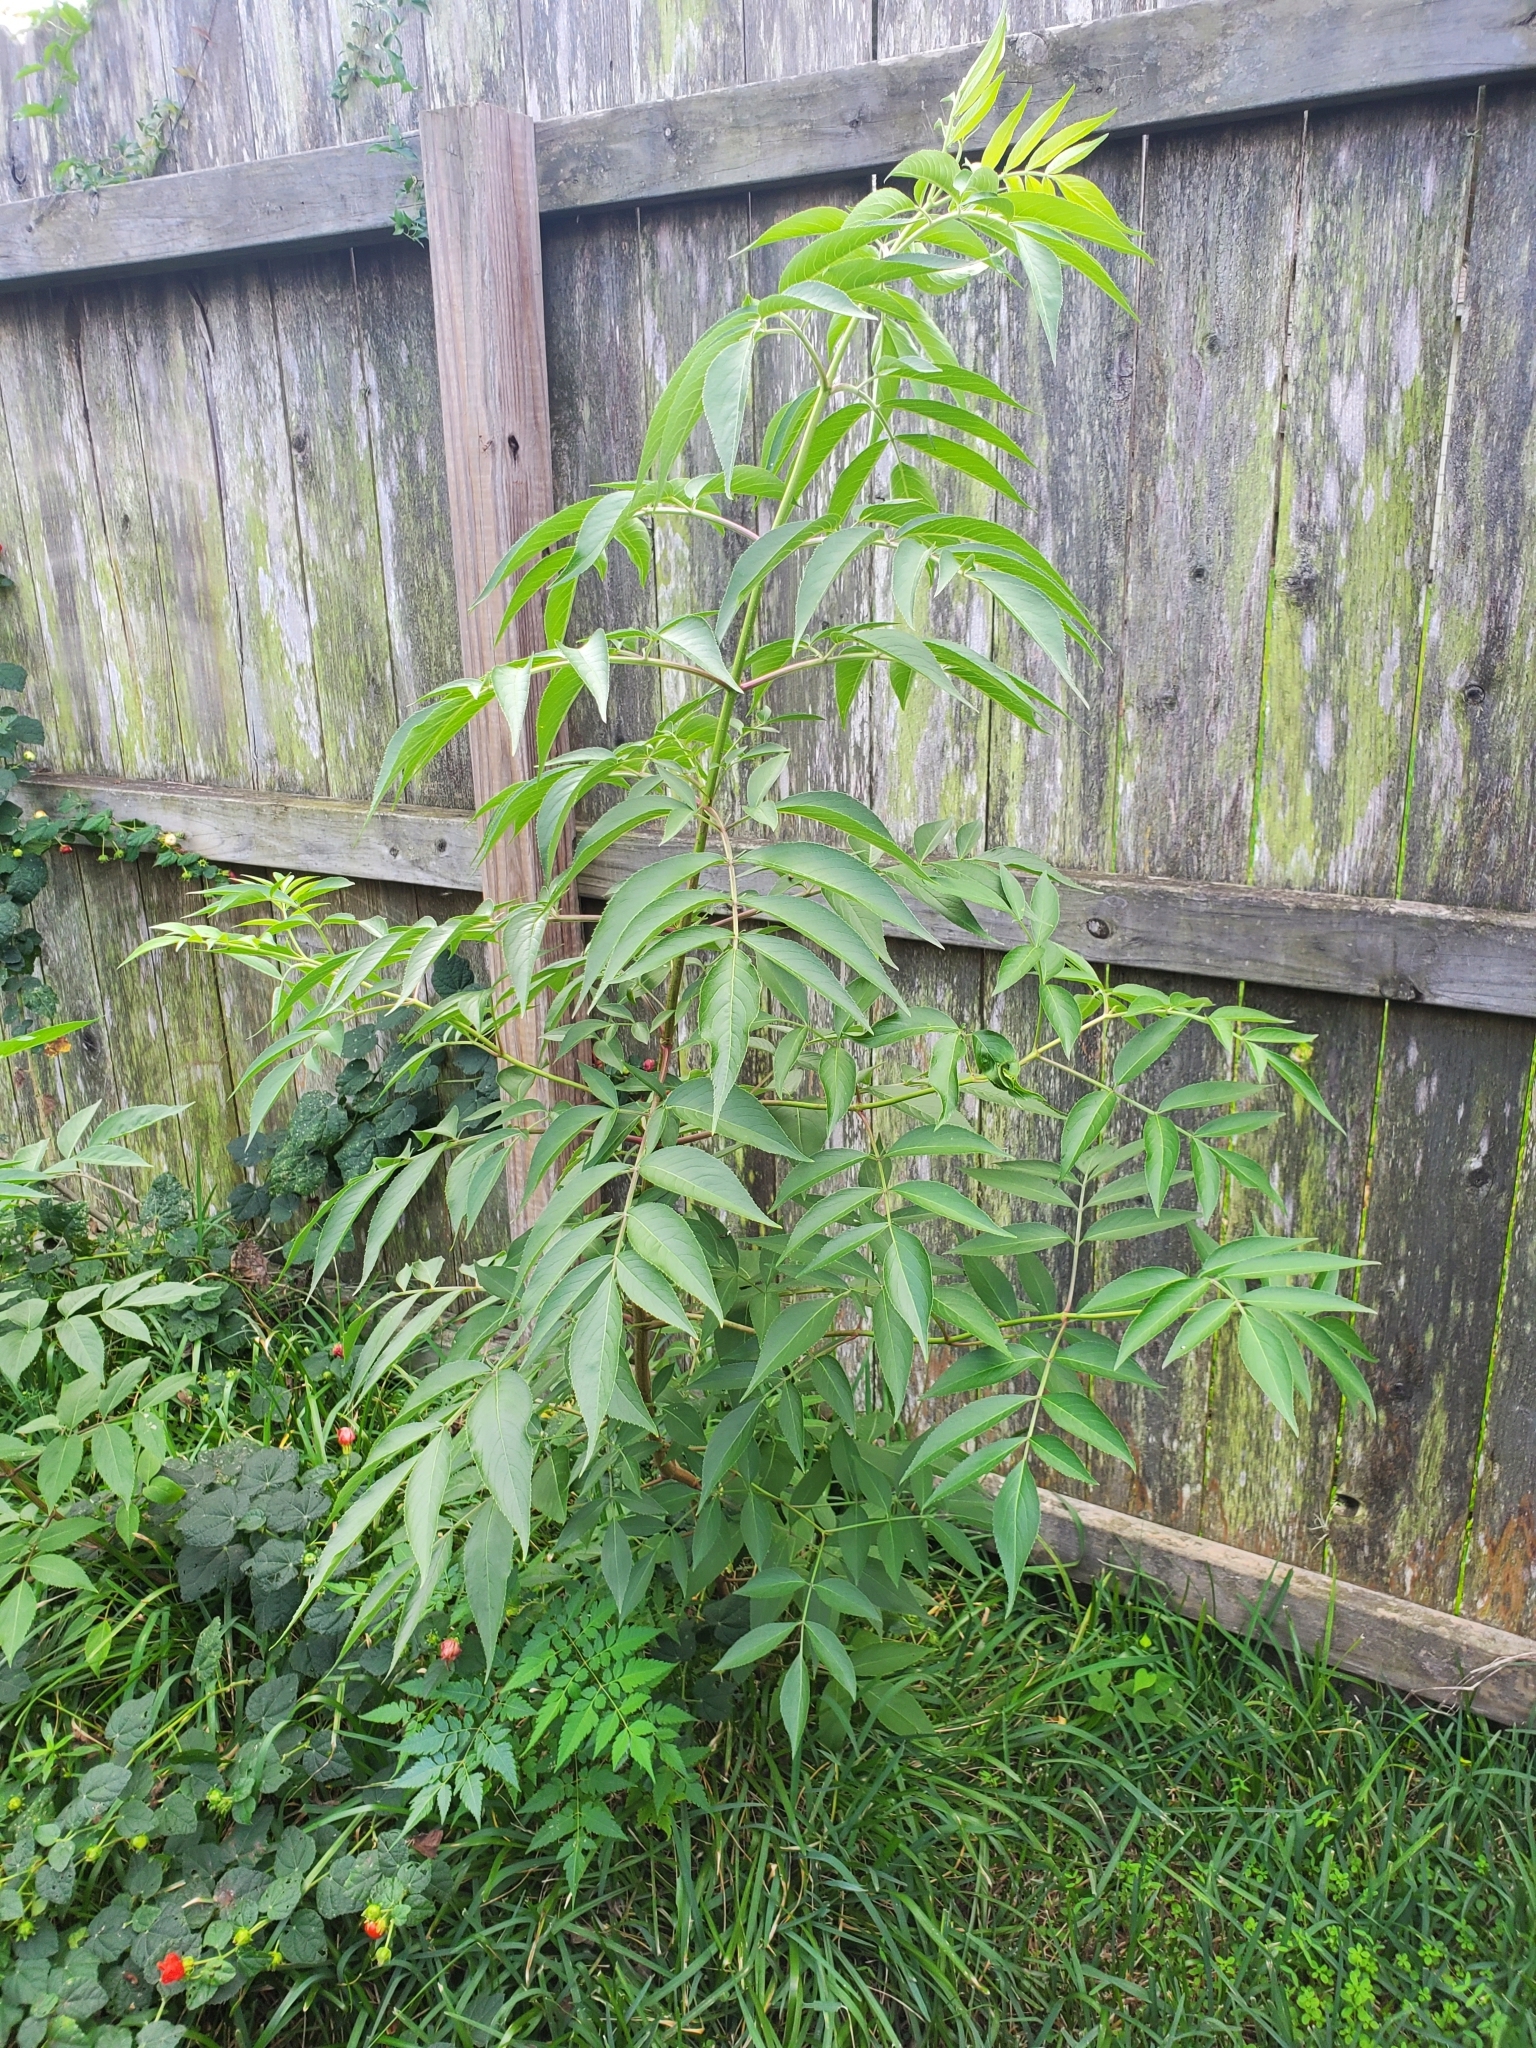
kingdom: Plantae
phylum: Tracheophyta
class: Magnoliopsida
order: Dipsacales
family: Viburnaceae
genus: Sambucus
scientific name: Sambucus canadensis
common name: American elder
